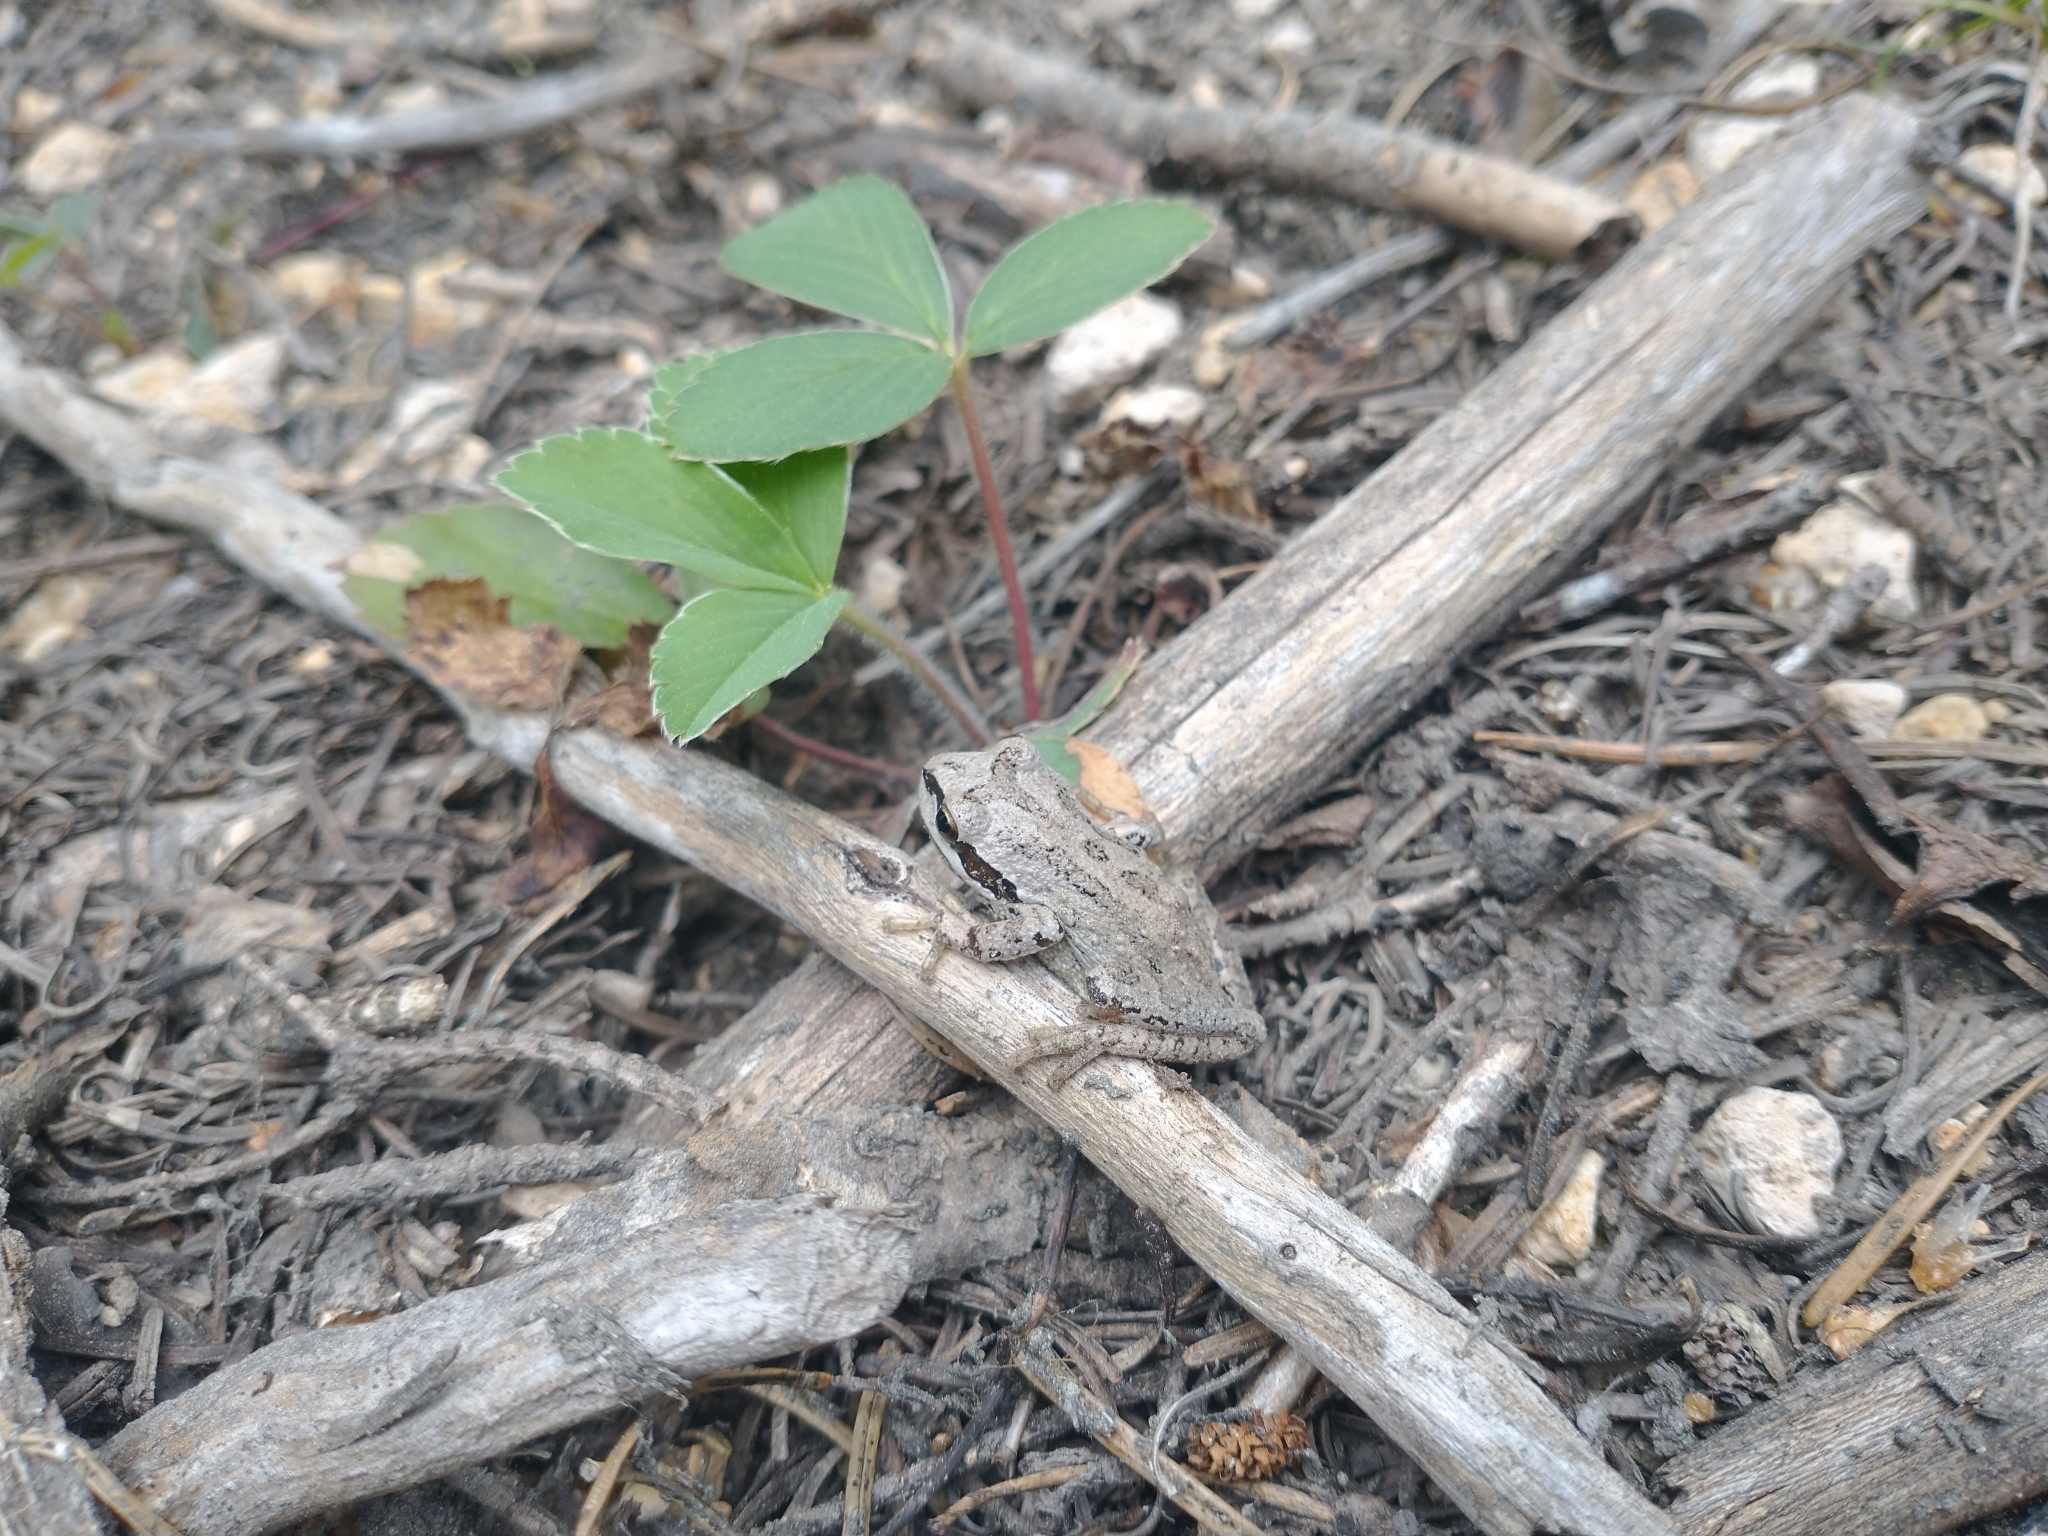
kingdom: Plantae
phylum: Tracheophyta
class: Magnoliopsida
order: Rosales
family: Rosaceae
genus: Fragaria
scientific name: Fragaria virginiana
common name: Thickleaved wild strawberry
